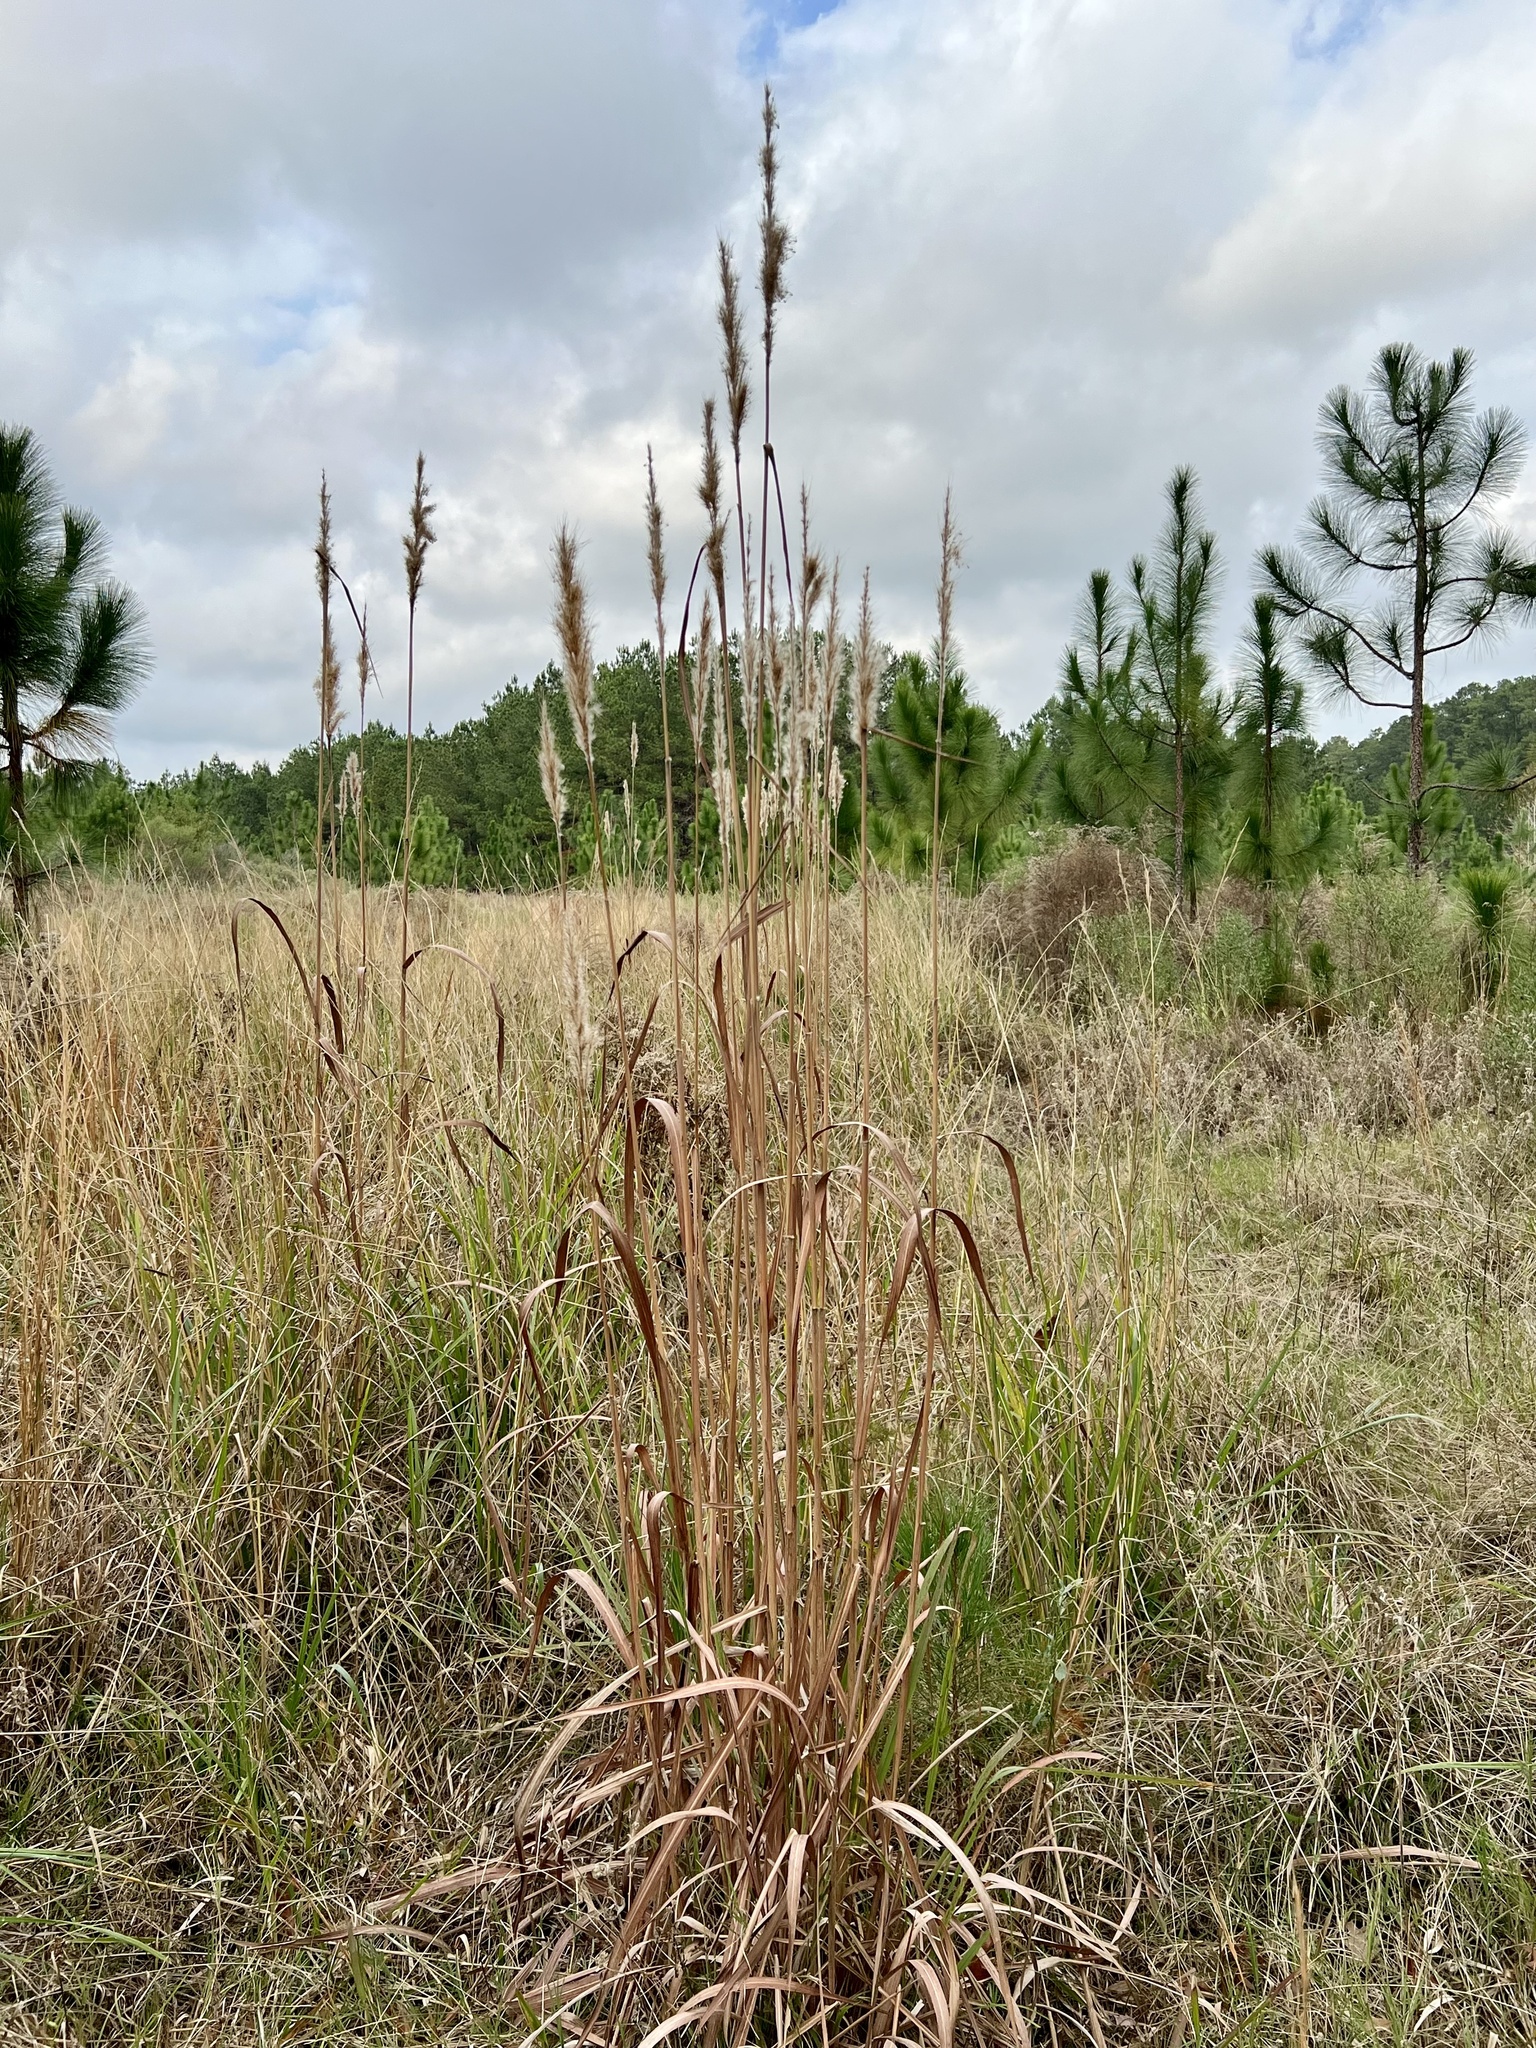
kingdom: Plantae
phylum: Tracheophyta
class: Liliopsida
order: Poales
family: Poaceae
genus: Erianthus
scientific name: Erianthus giganteus
